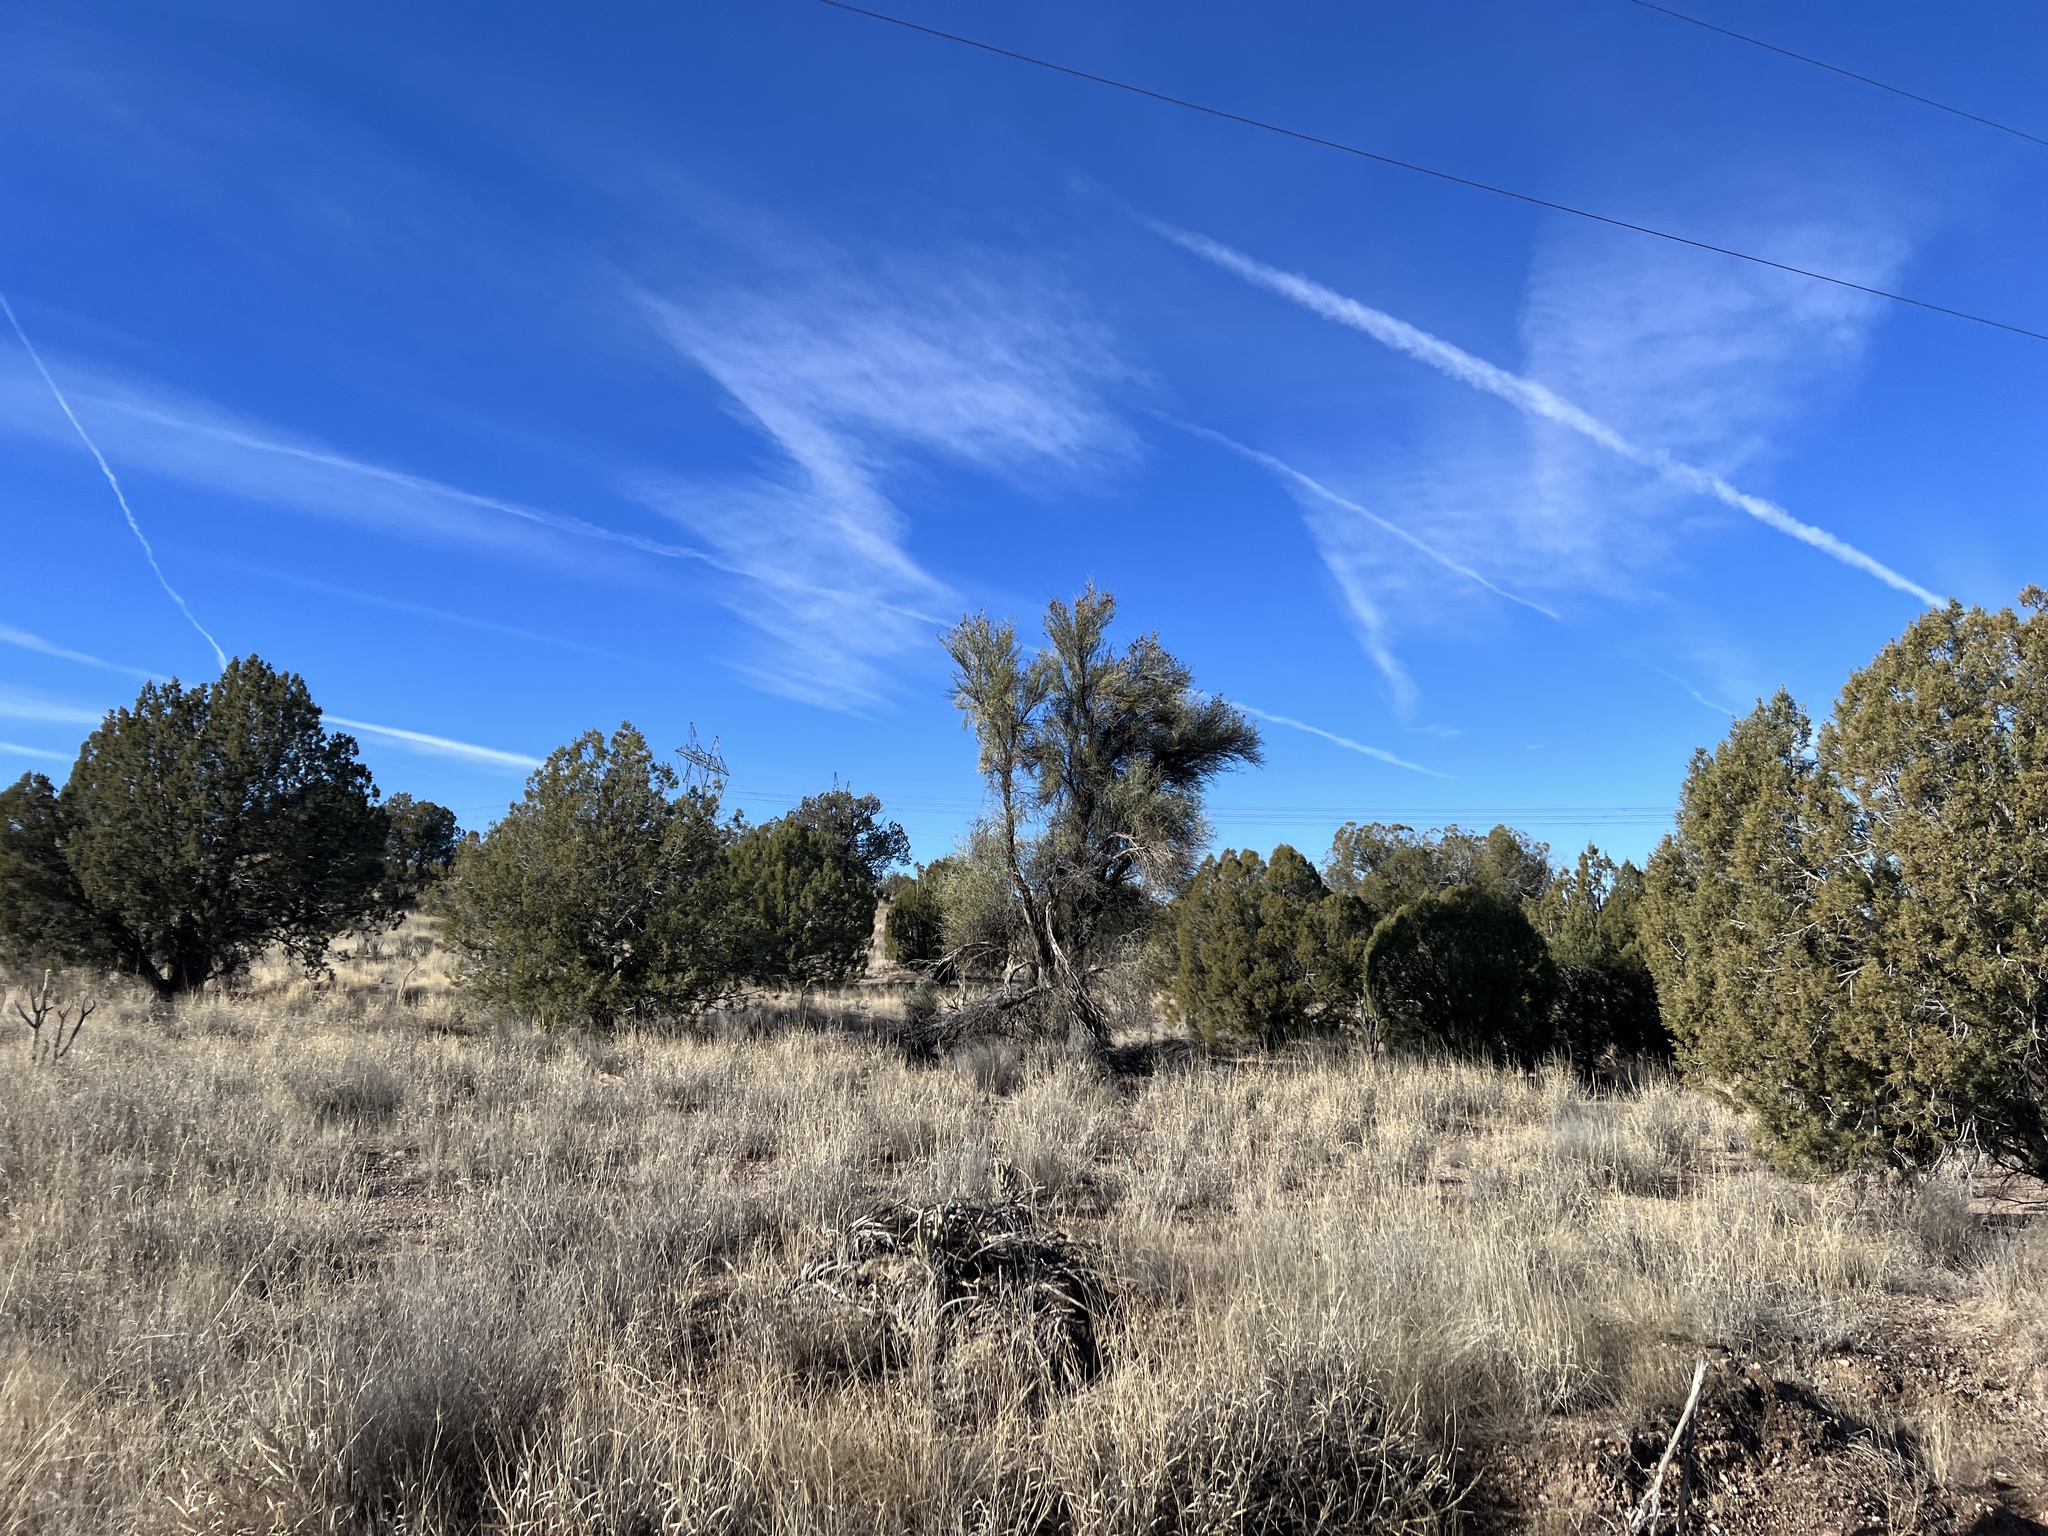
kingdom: Plantae
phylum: Tracheophyta
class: Magnoliopsida
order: Celastrales
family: Celastraceae
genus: Canotia
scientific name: Canotia holacantha
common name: Crucifixion thorns
